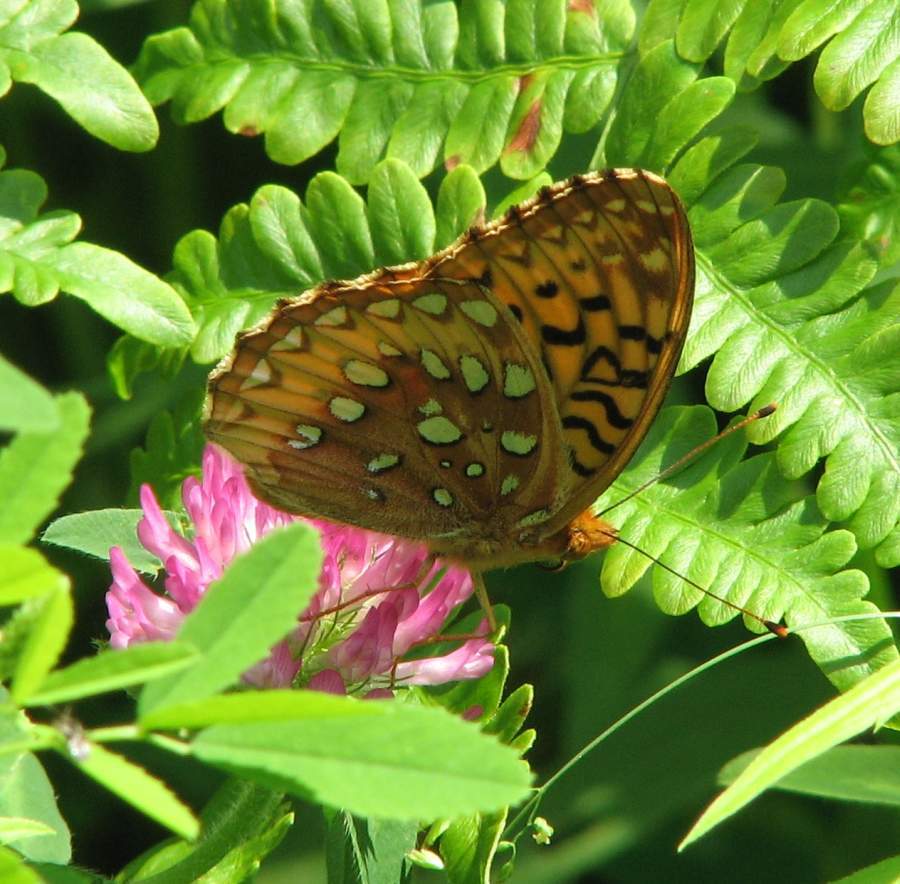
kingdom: Animalia
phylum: Arthropoda
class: Insecta
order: Lepidoptera
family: Nymphalidae
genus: Speyeria
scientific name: Speyeria cybele
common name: Great spangled fritillary
